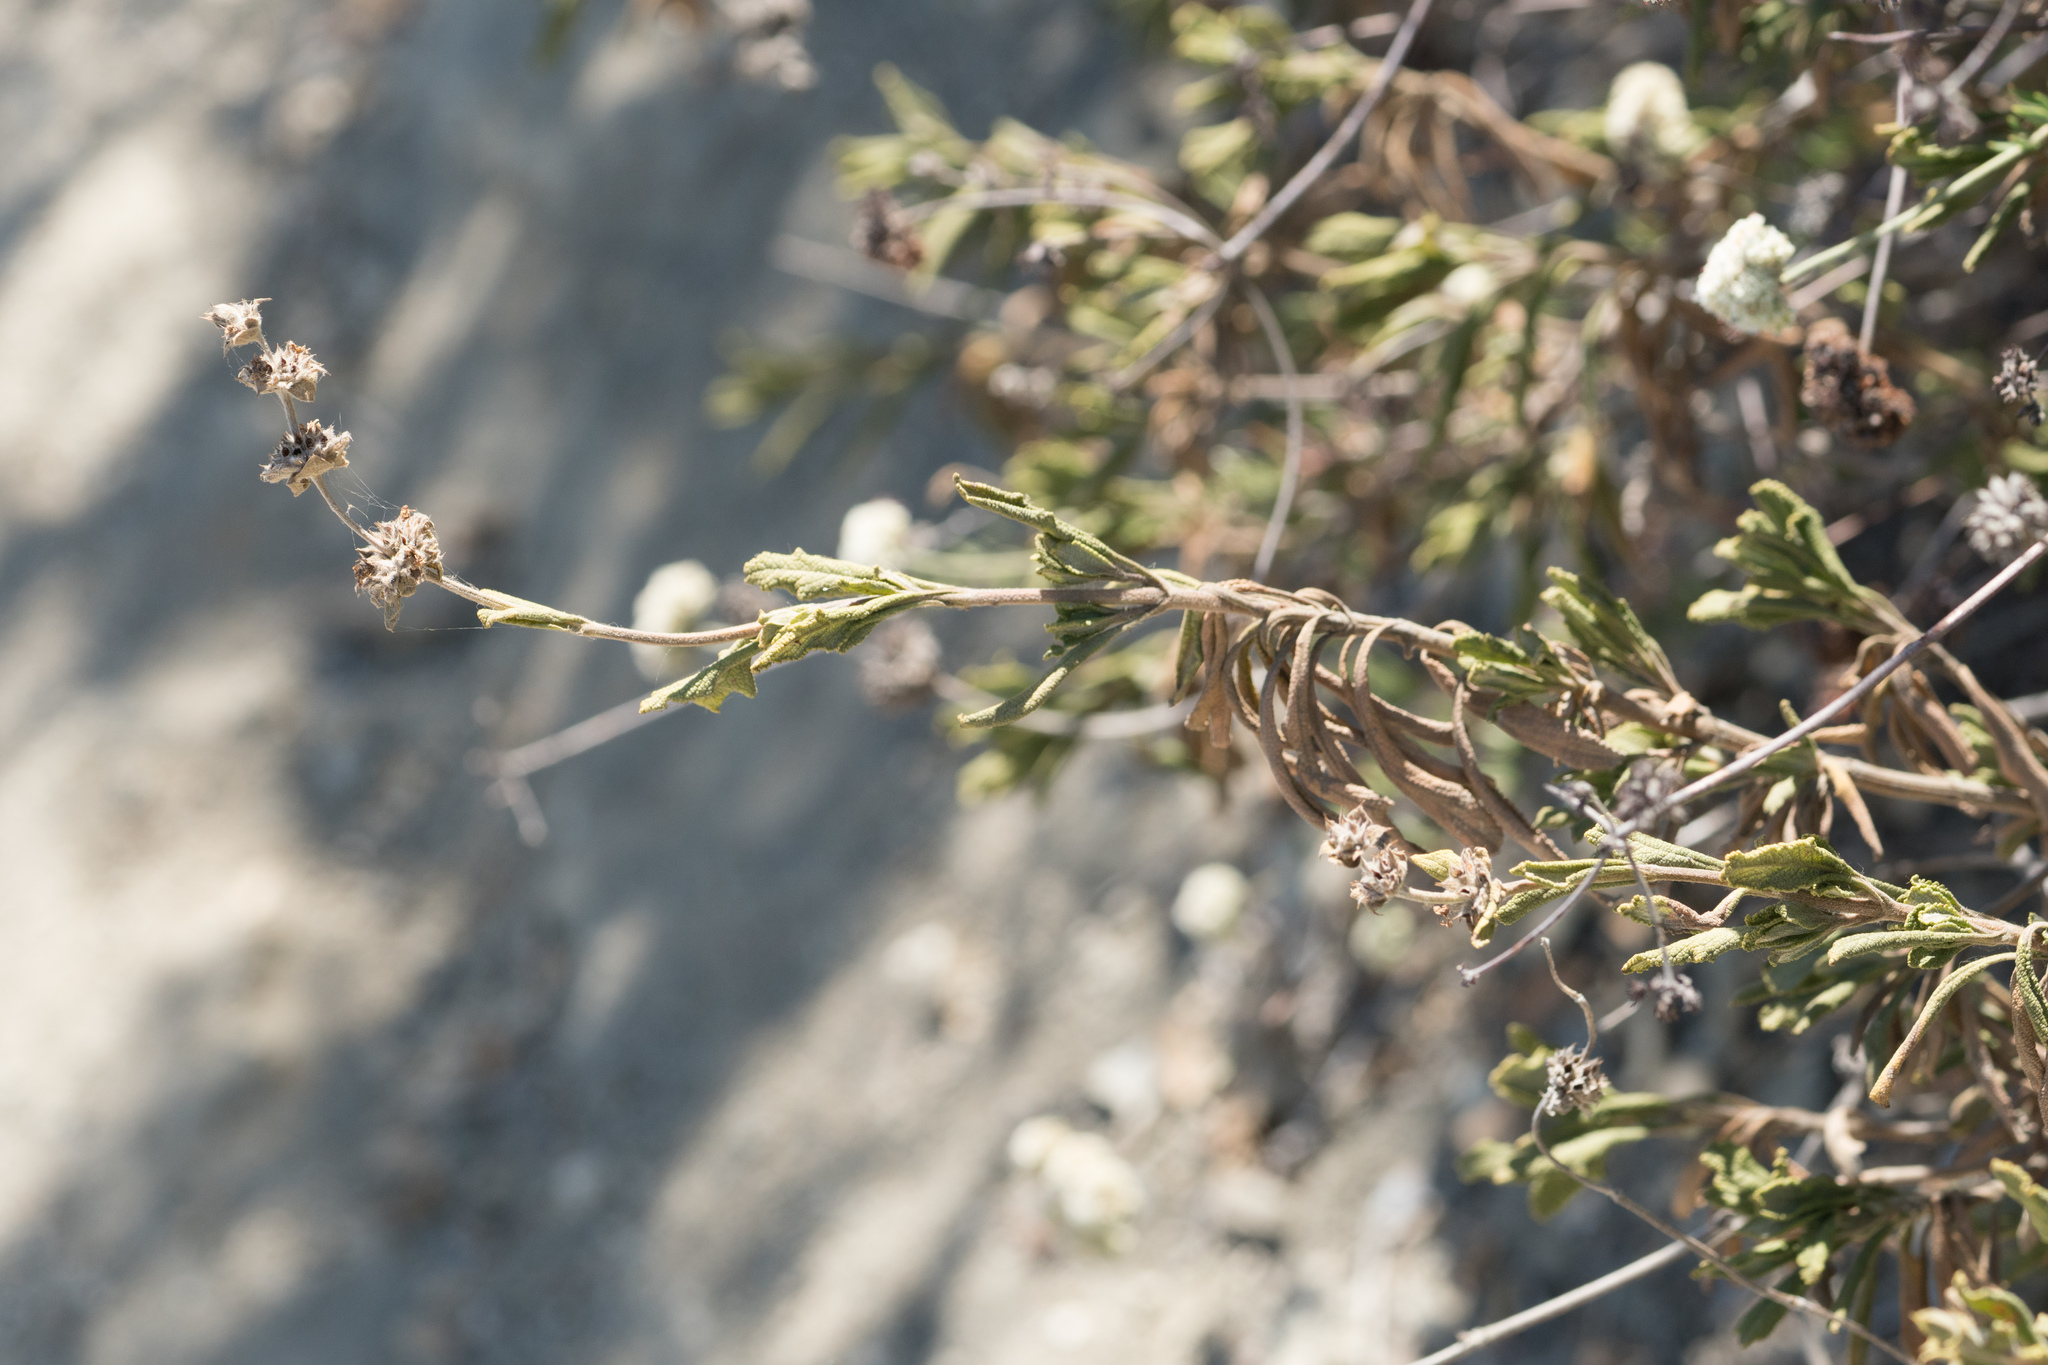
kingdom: Plantae
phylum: Tracheophyta
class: Magnoliopsida
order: Lamiales
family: Lamiaceae
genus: Salvia
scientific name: Salvia mellifera
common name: Black sage
